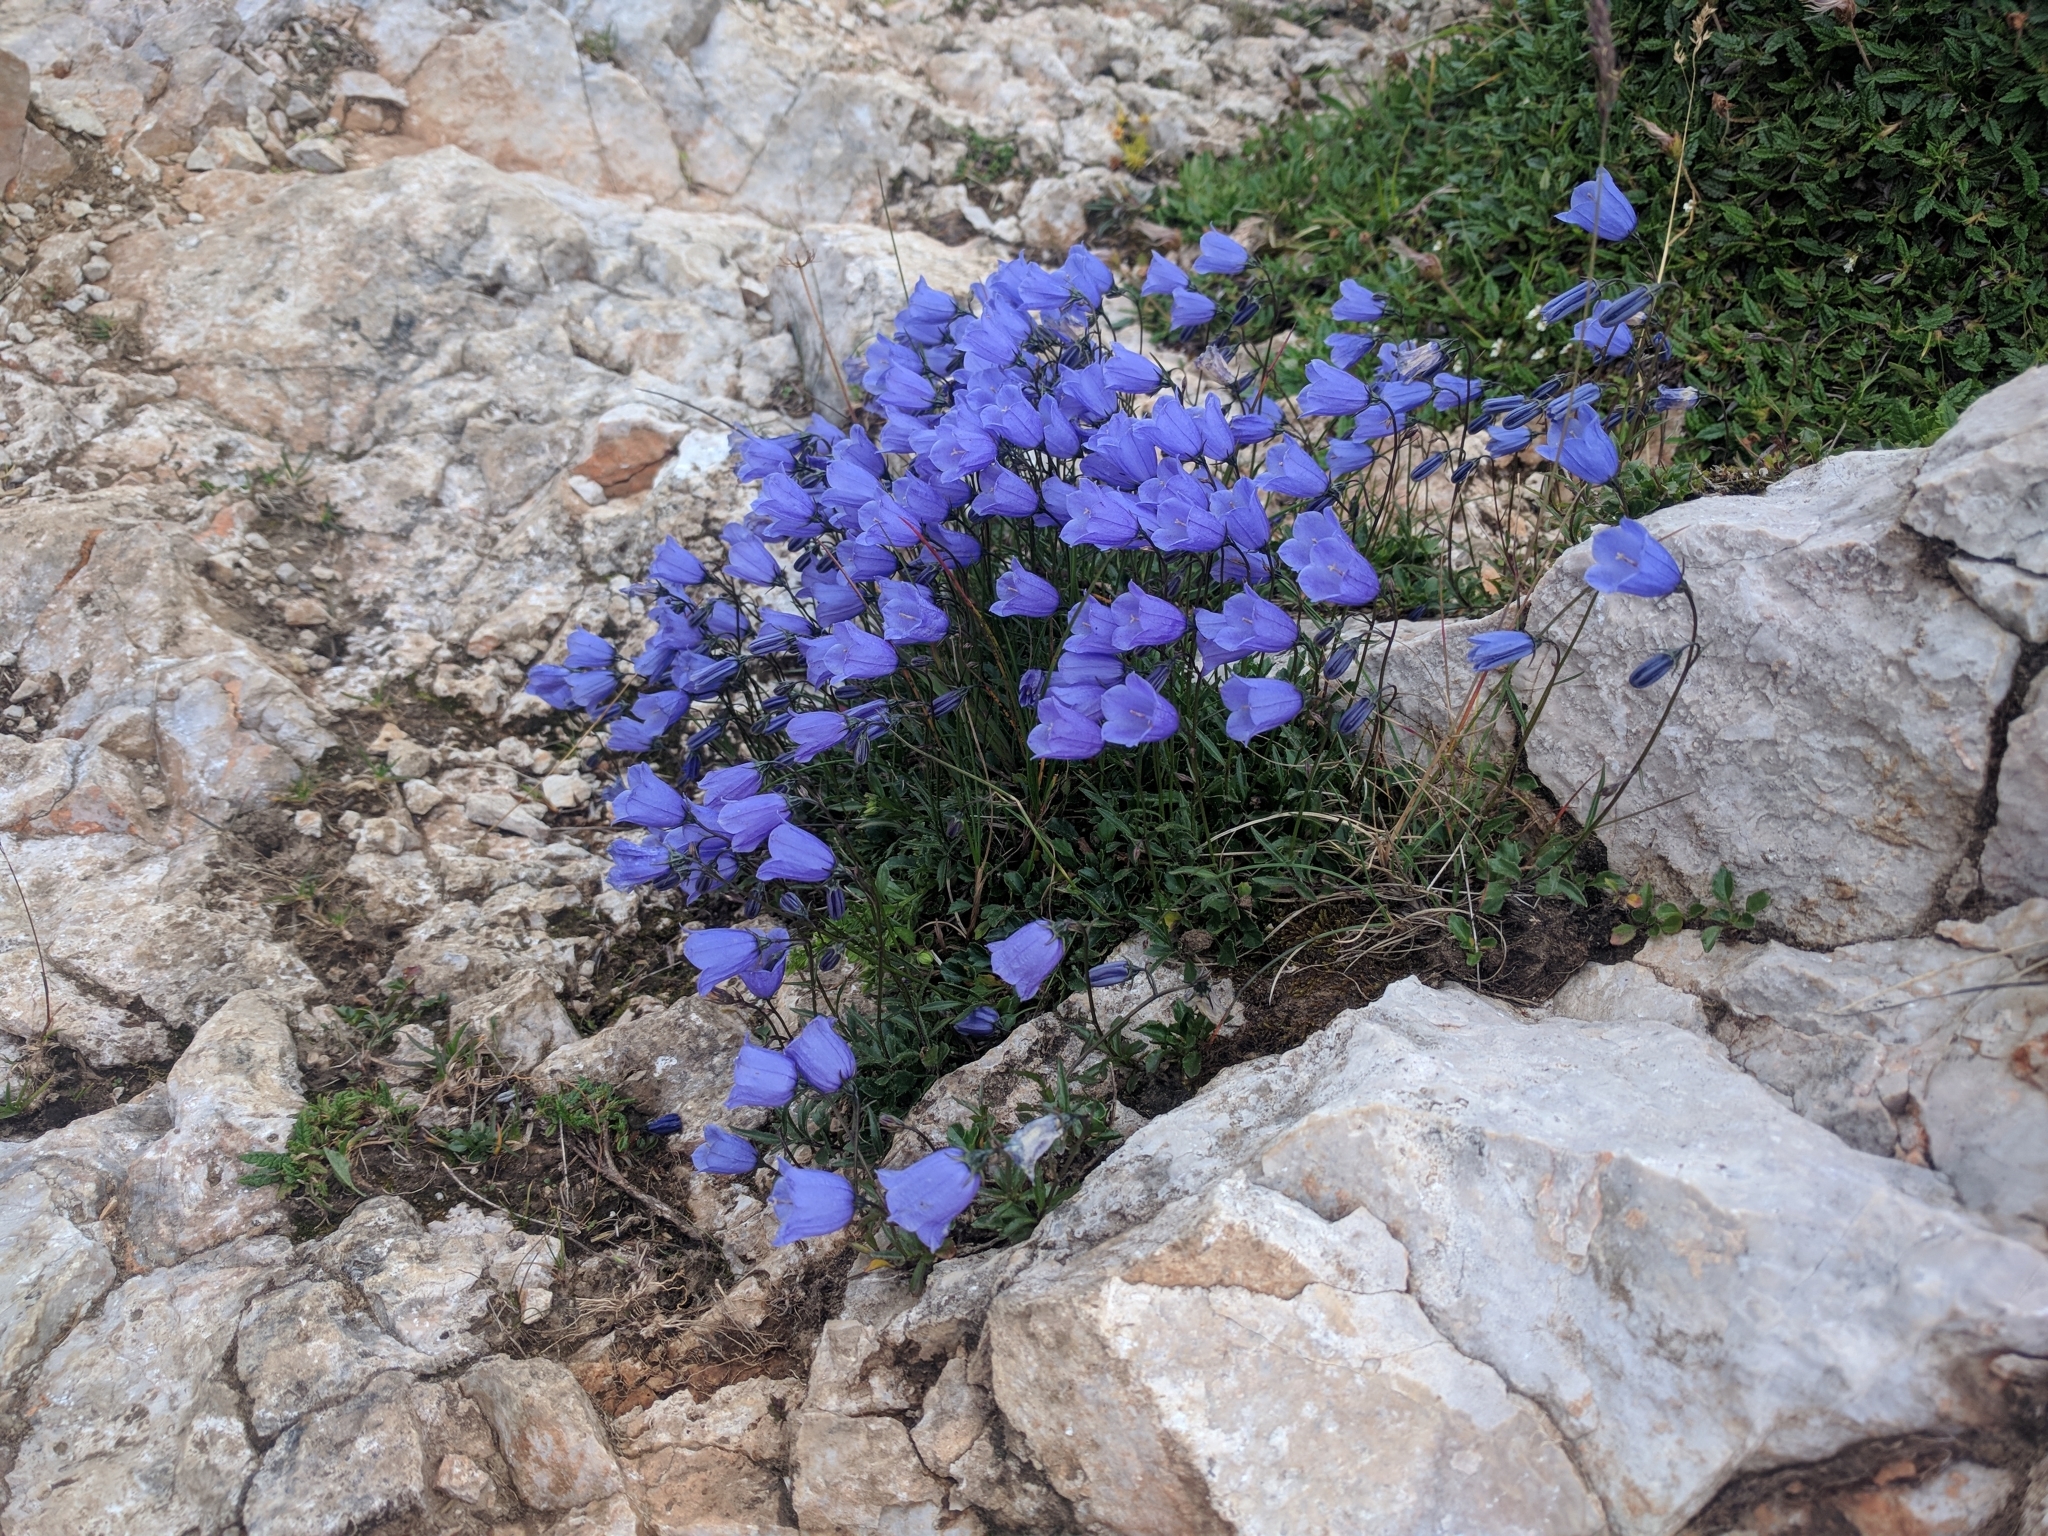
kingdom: Plantae
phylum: Tracheophyta
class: Magnoliopsida
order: Asterales
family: Campanulaceae
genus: Campanula
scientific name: Campanula cochleariifolia
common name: Fairies'-thimbles
